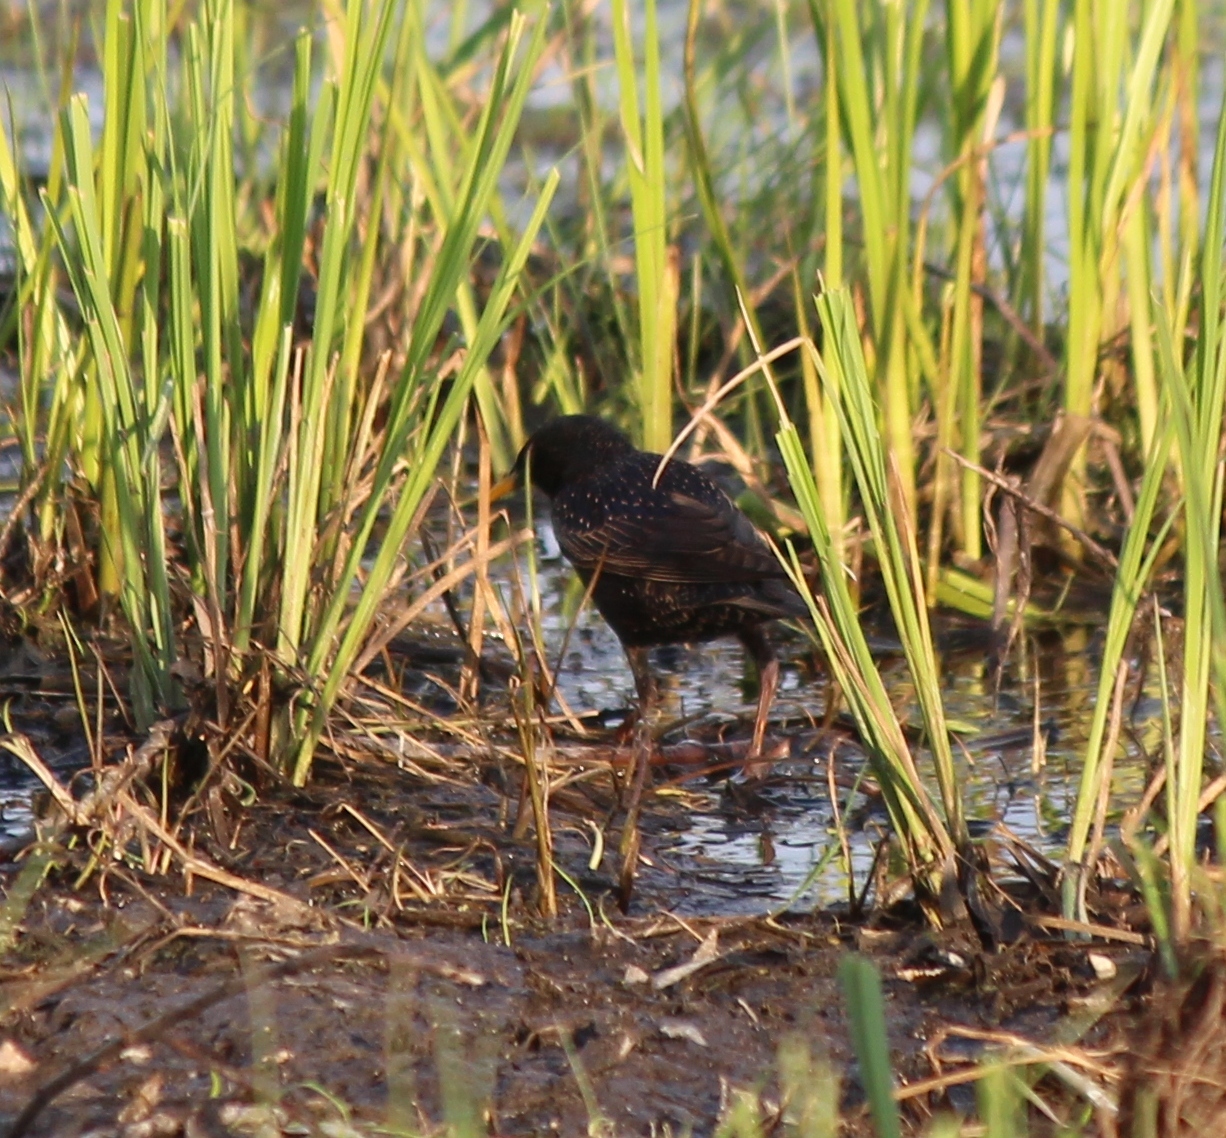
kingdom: Animalia
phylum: Chordata
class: Aves
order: Passeriformes
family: Sturnidae
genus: Sturnus
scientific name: Sturnus vulgaris
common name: Common starling
